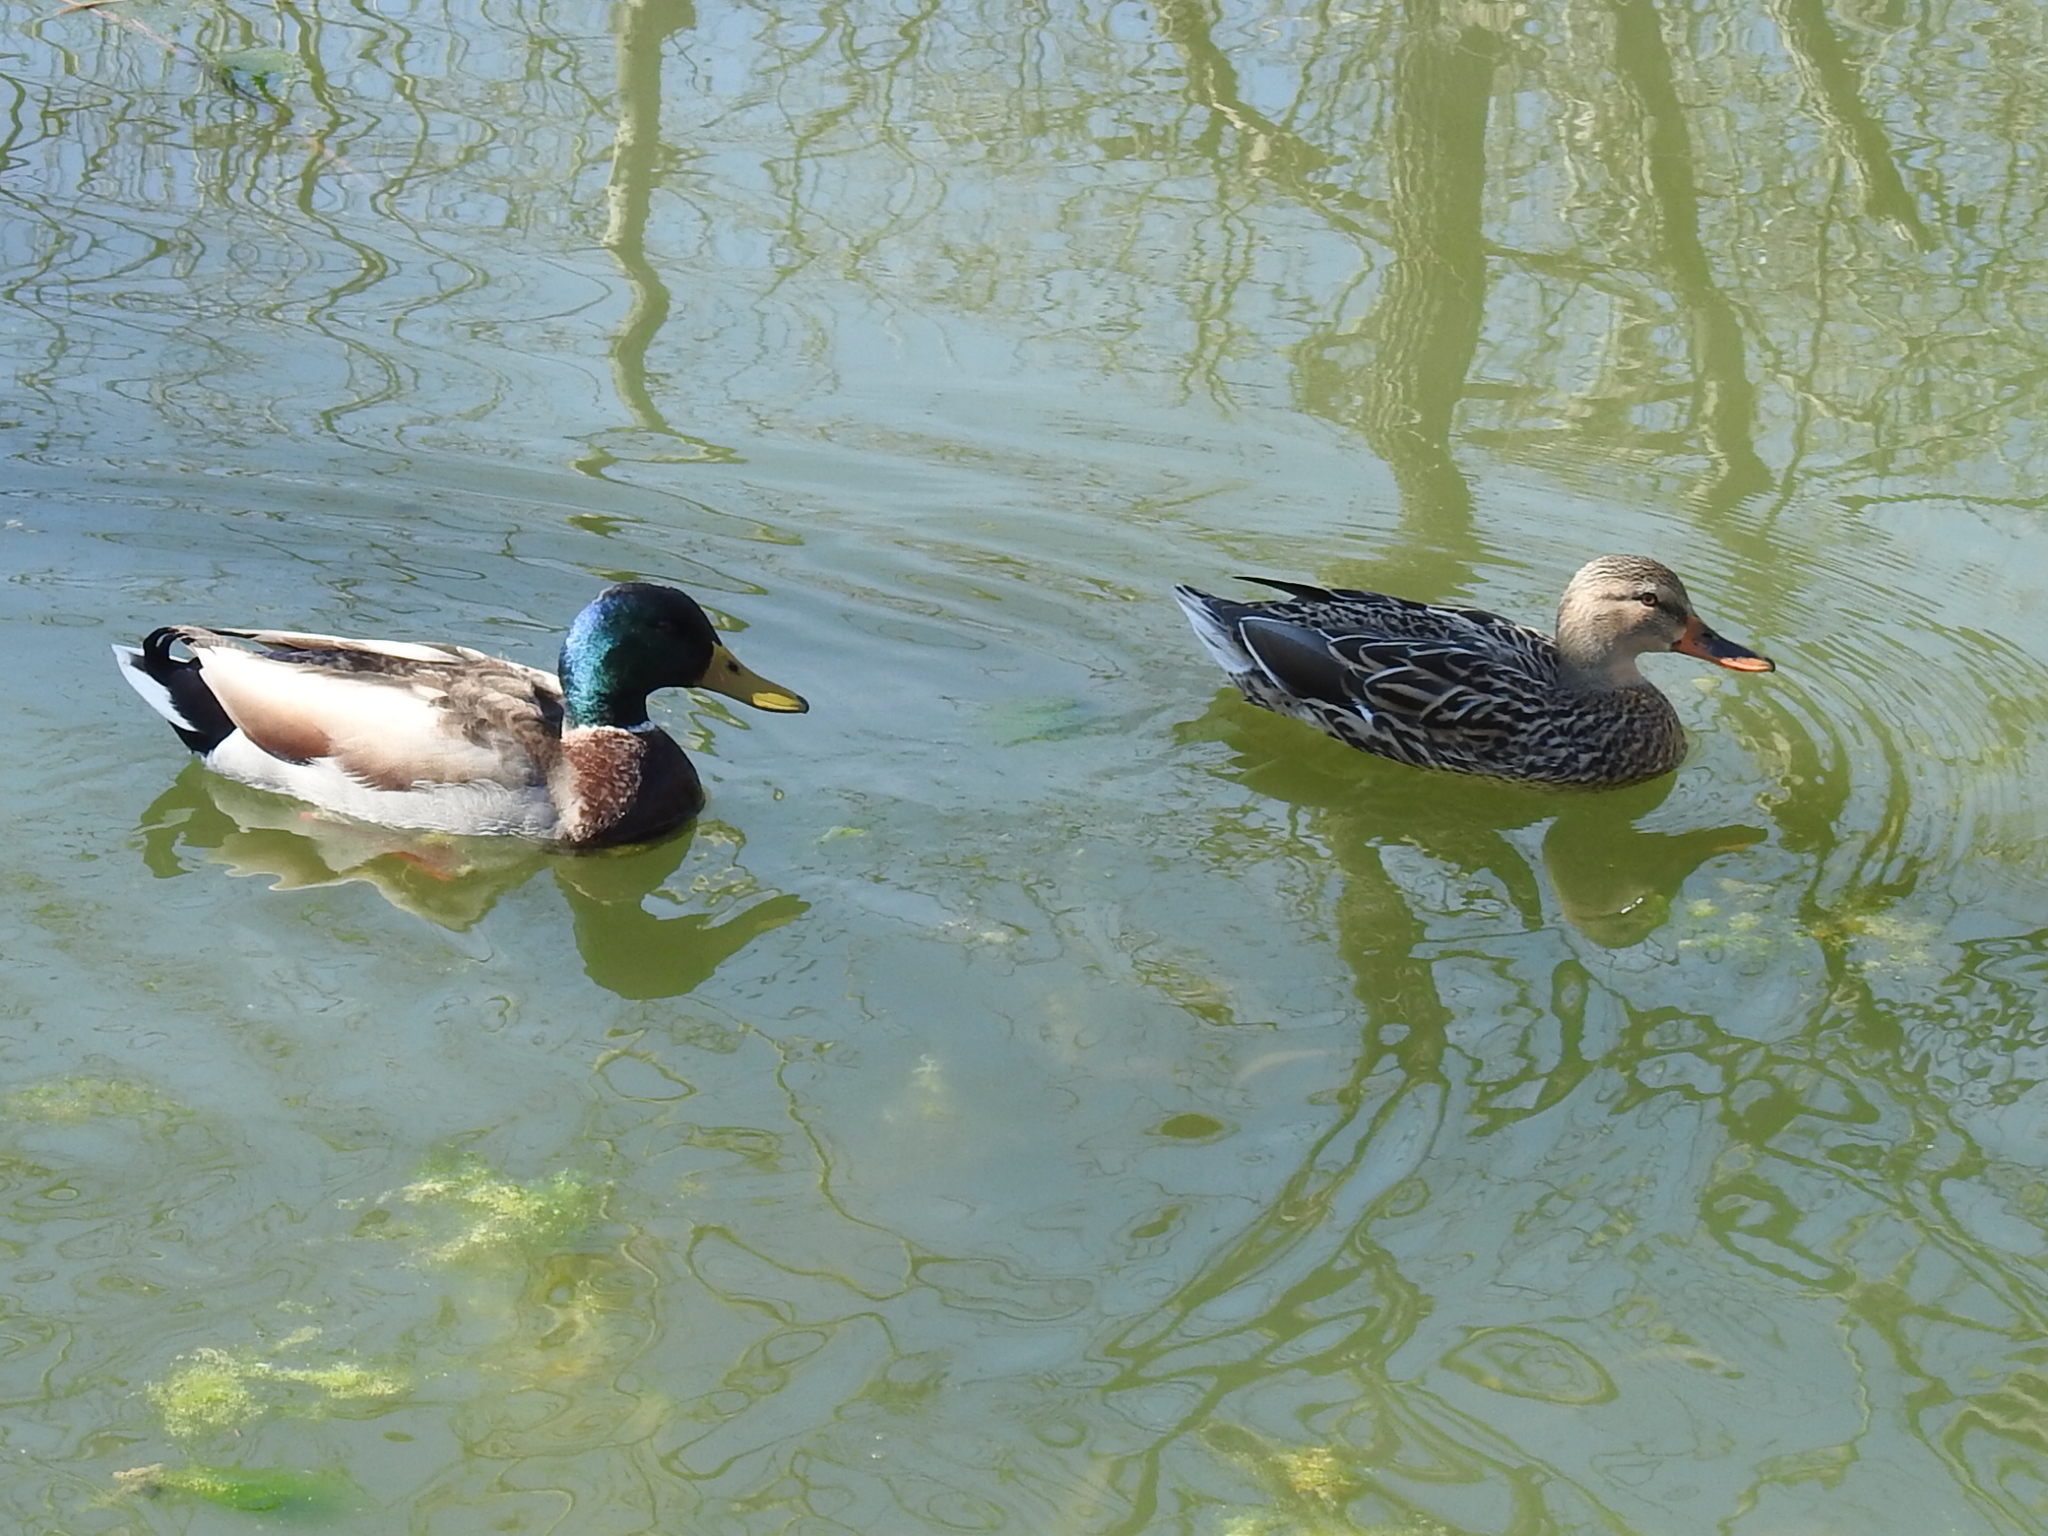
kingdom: Animalia
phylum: Chordata
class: Aves
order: Anseriformes
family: Anatidae
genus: Anas
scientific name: Anas platyrhynchos
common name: Mallard
